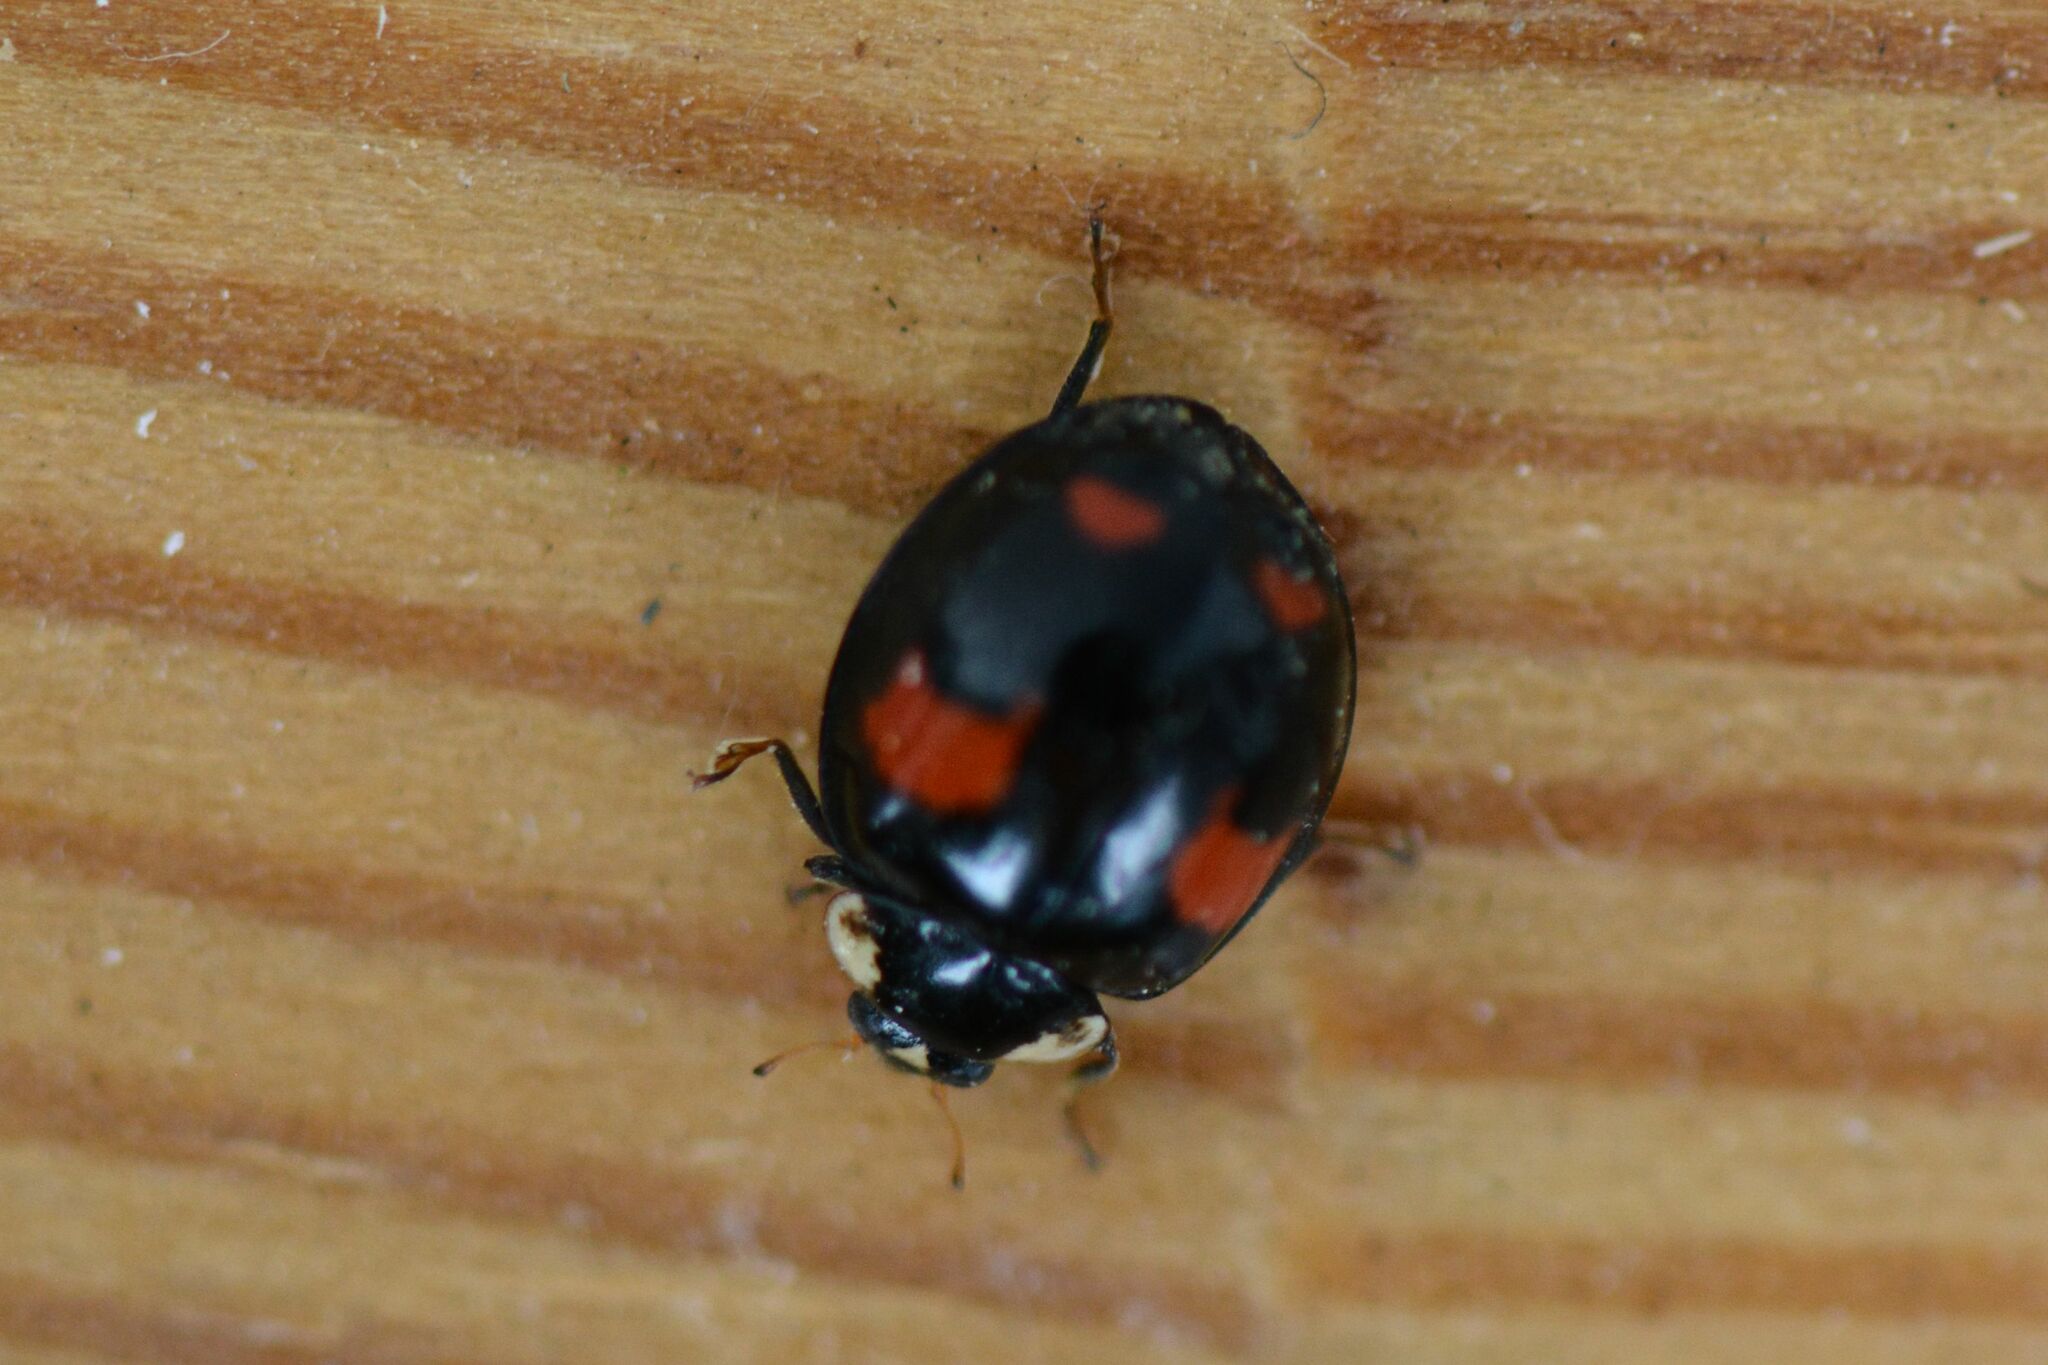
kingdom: Animalia
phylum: Arthropoda
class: Insecta
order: Coleoptera
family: Coccinellidae
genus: Harmonia
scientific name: Harmonia axyridis
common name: Harlequin ladybird
